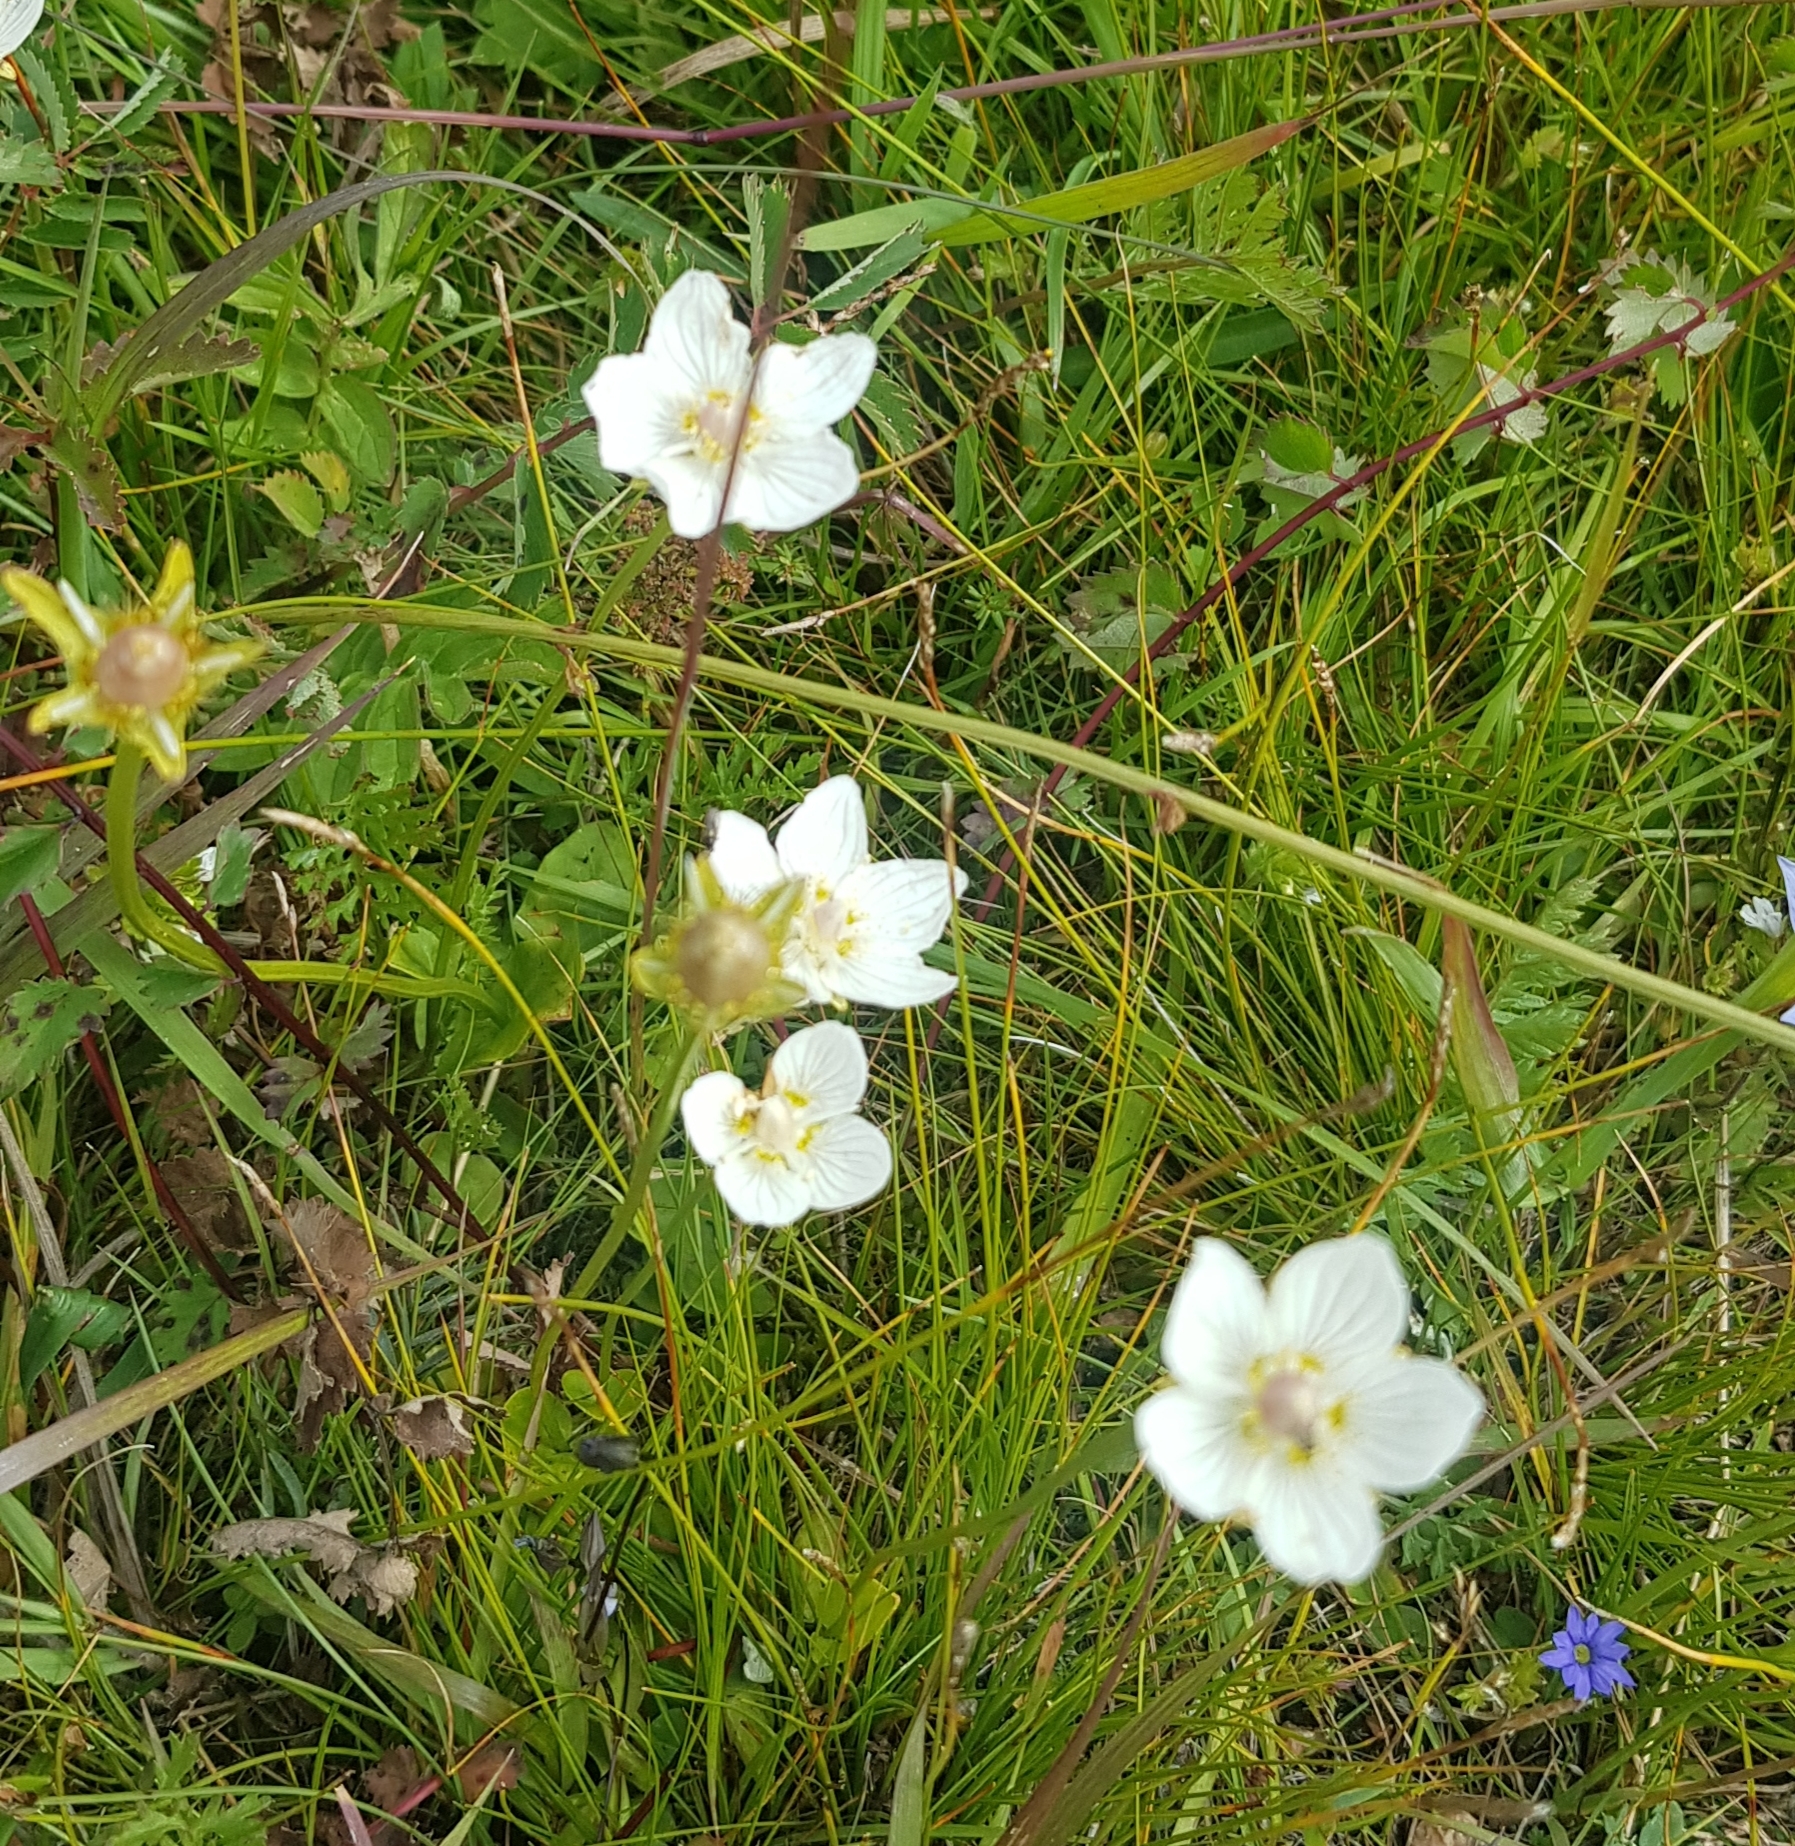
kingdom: Plantae
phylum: Tracheophyta
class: Magnoliopsida
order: Celastrales
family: Parnassiaceae
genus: Parnassia
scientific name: Parnassia palustris
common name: Grass-of-parnassus
